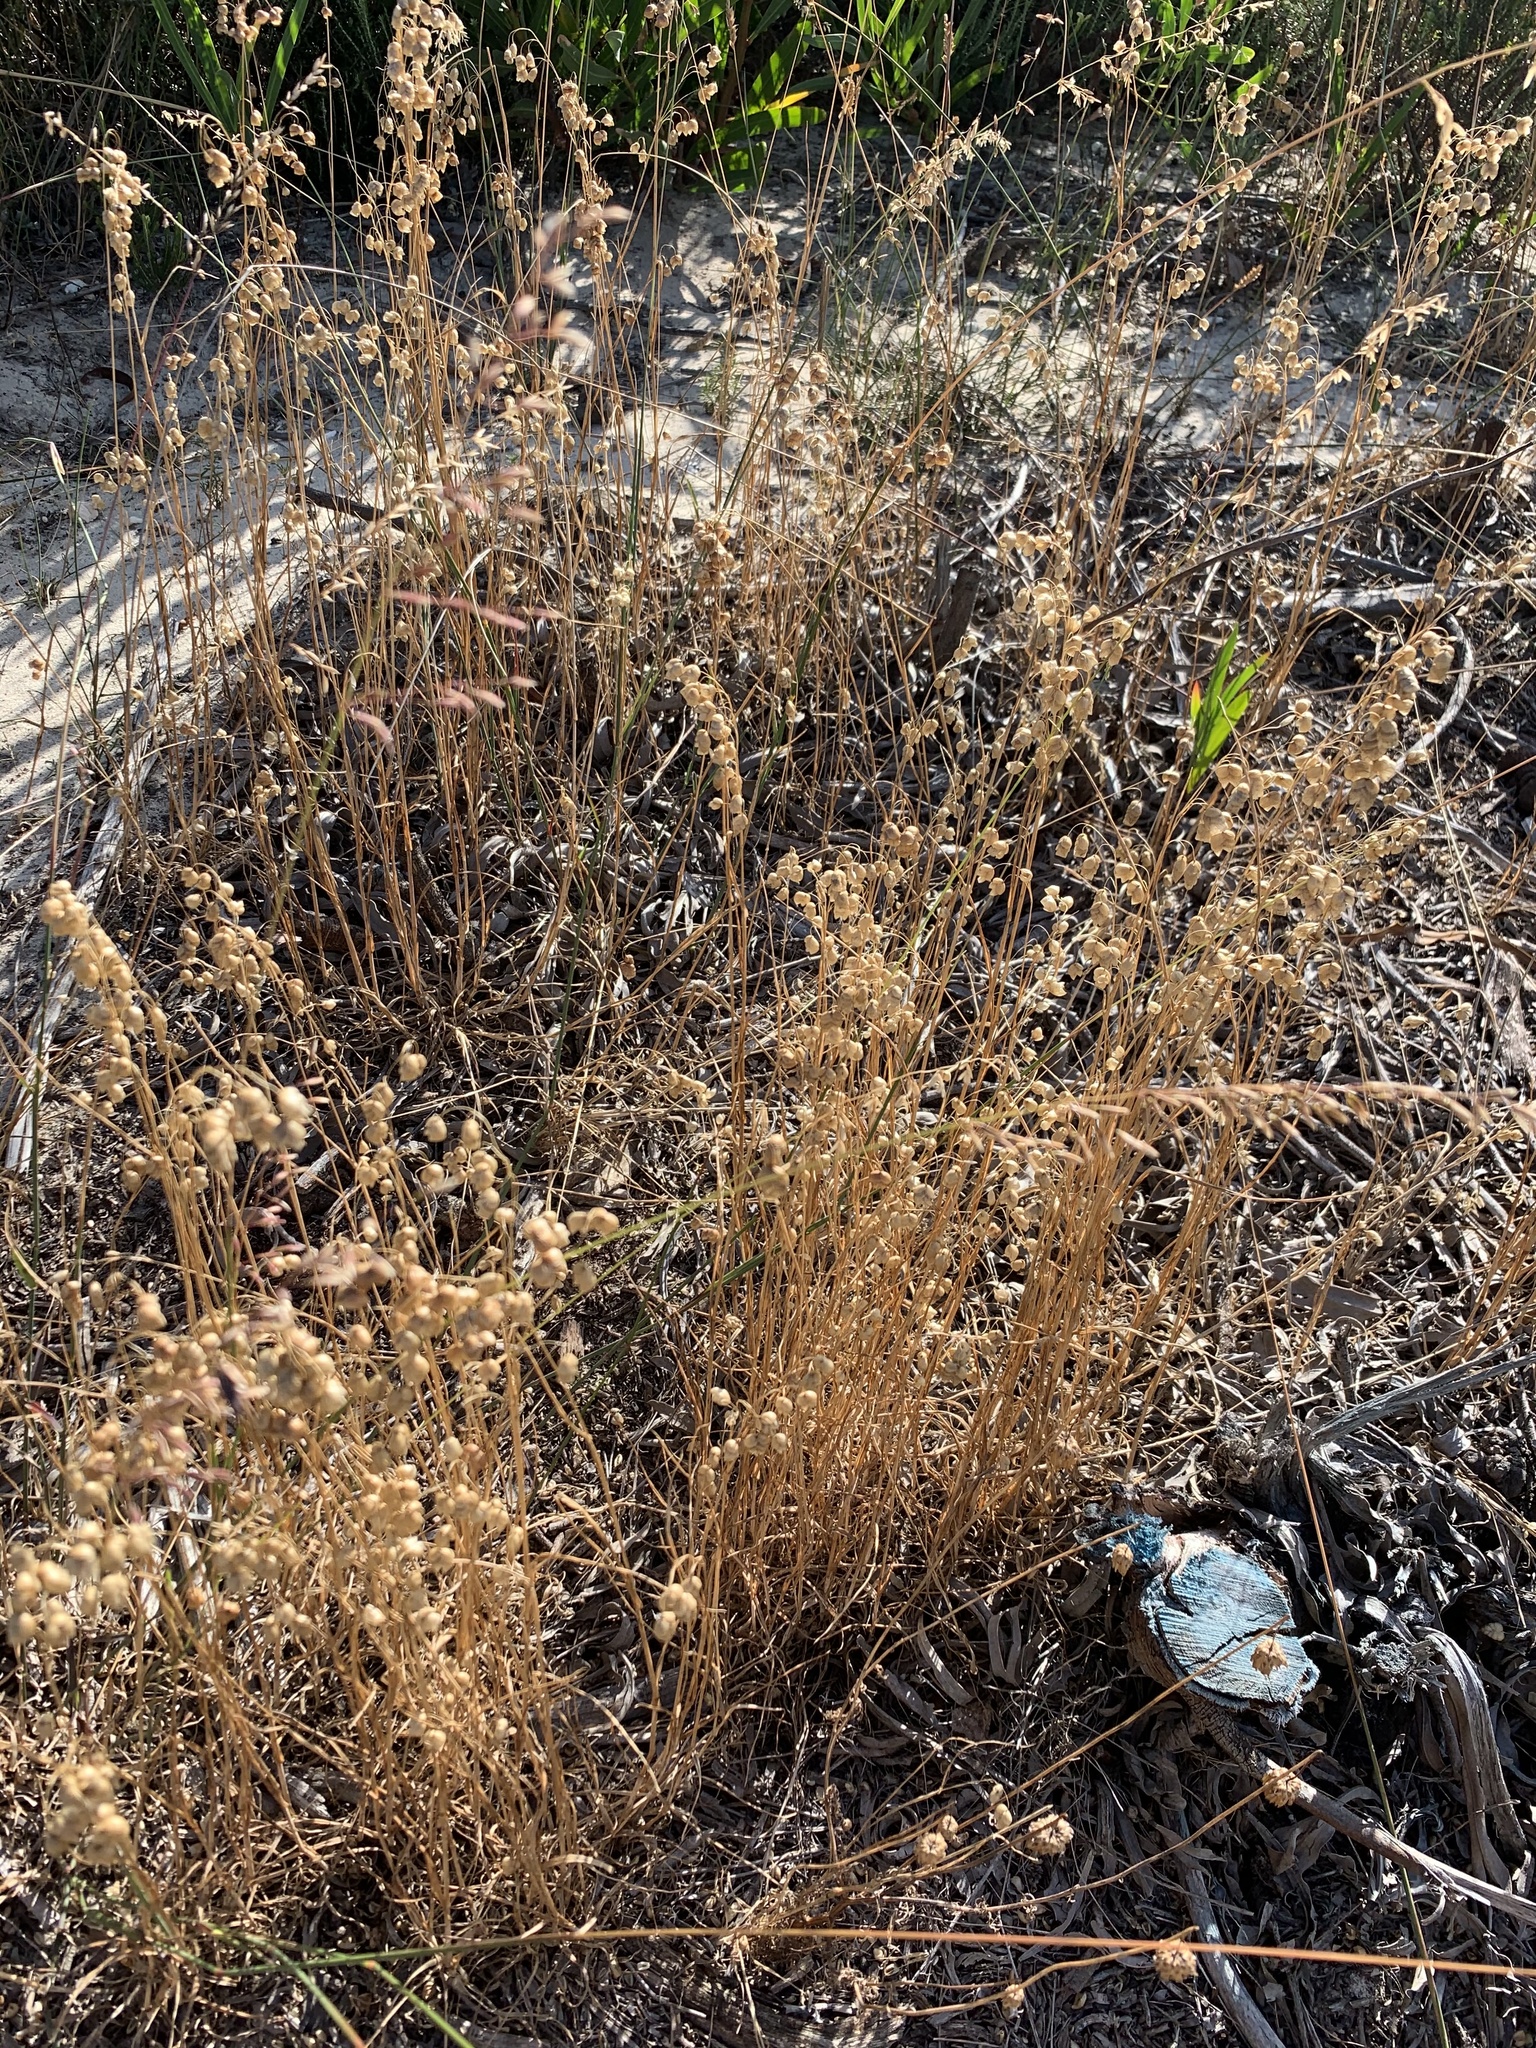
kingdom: Plantae
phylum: Tracheophyta
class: Liliopsida
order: Poales
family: Poaceae
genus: Briza
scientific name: Briza maxima
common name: Big quakinggrass
